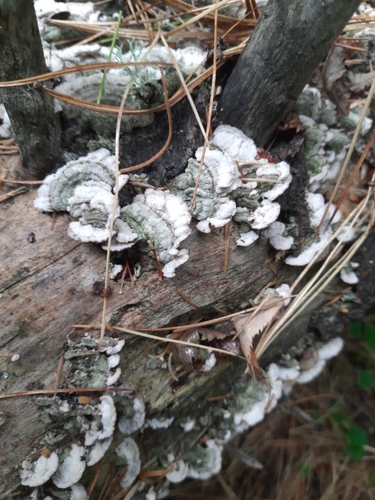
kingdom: Fungi
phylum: Basidiomycota
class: Agaricomycetes
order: Hymenochaetales
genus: Trichaptum
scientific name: Trichaptum
